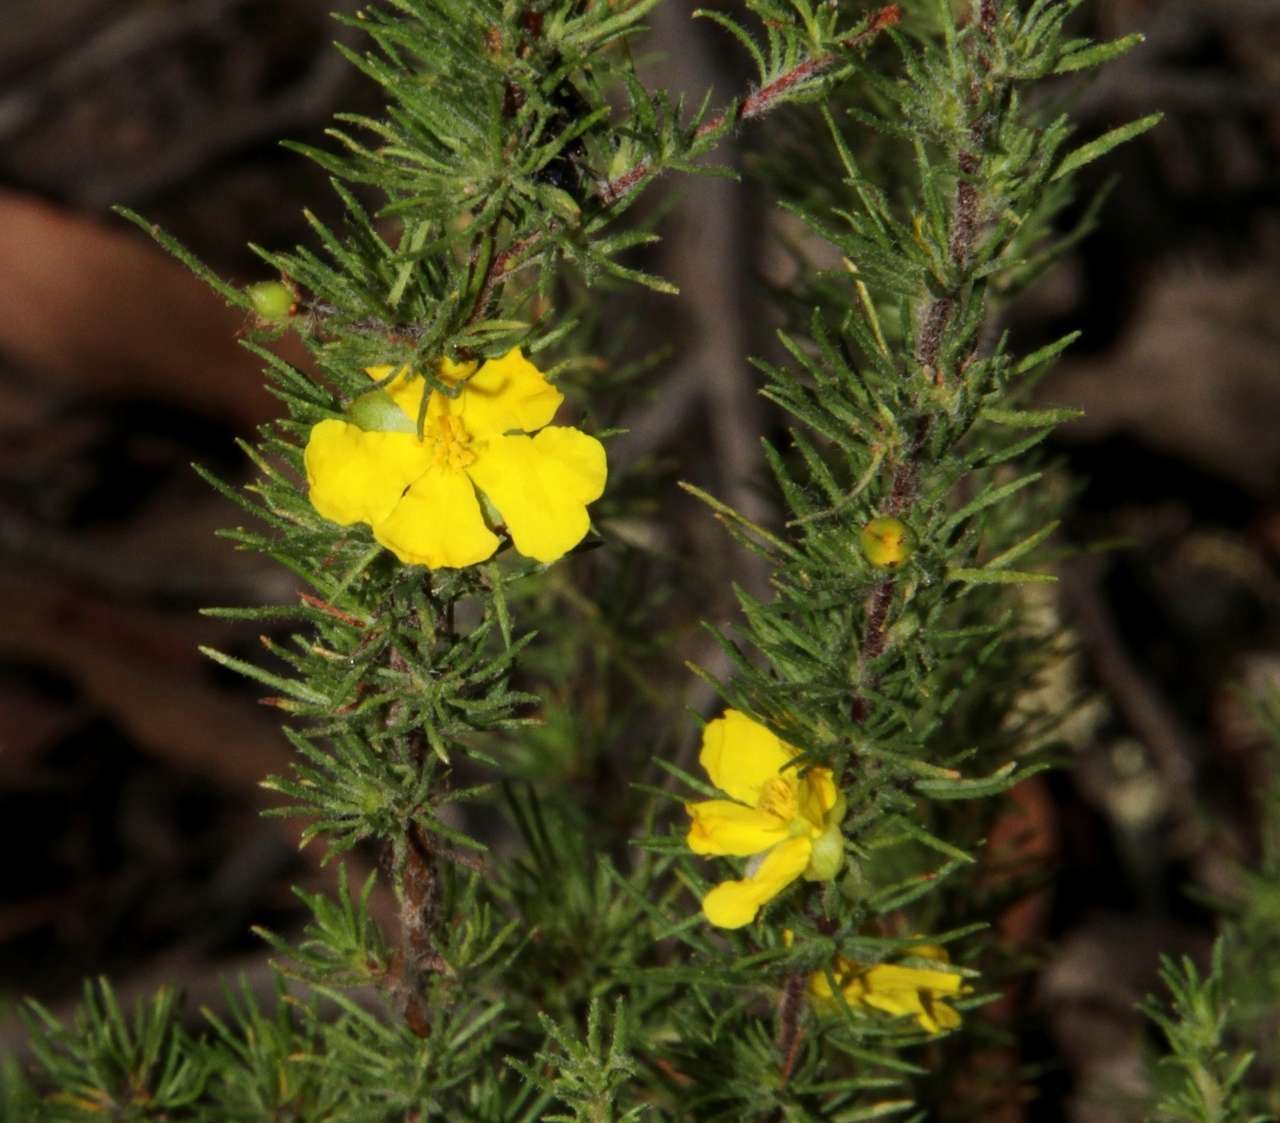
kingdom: Plantae
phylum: Tracheophyta
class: Magnoliopsida
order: Dilleniales
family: Dilleniaceae
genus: Hibbertia
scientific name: Hibbertia prostrata
